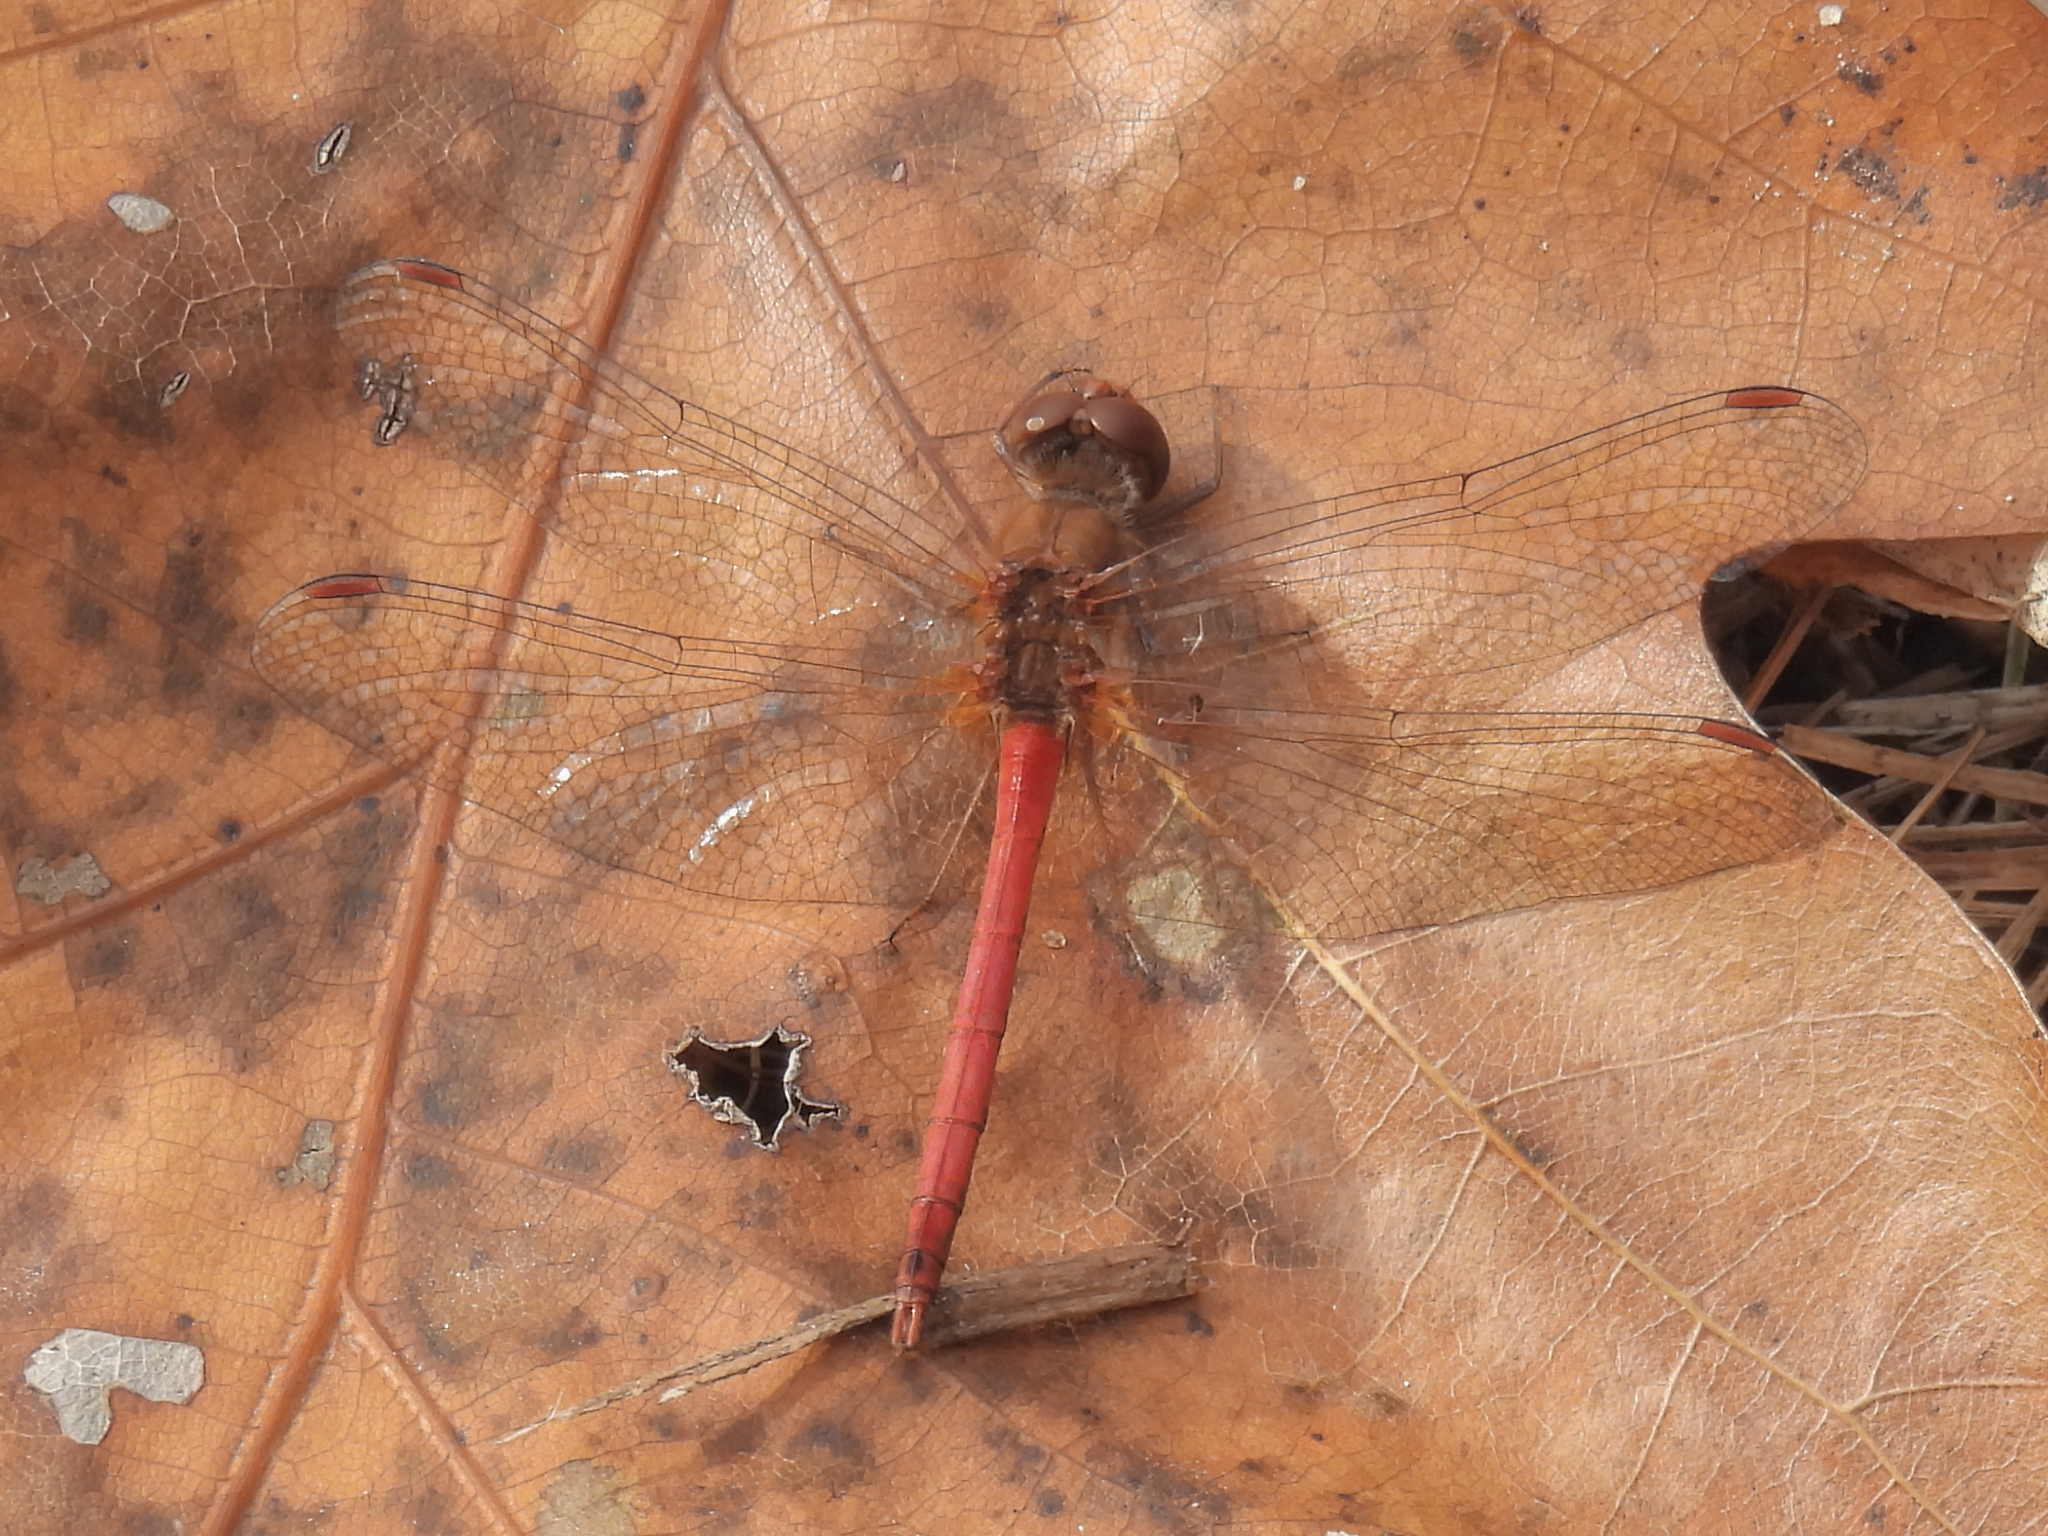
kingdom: Animalia
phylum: Arthropoda
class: Insecta
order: Odonata
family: Libellulidae
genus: Sympetrum
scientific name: Sympetrum vicinum
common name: Autumn meadowhawk
